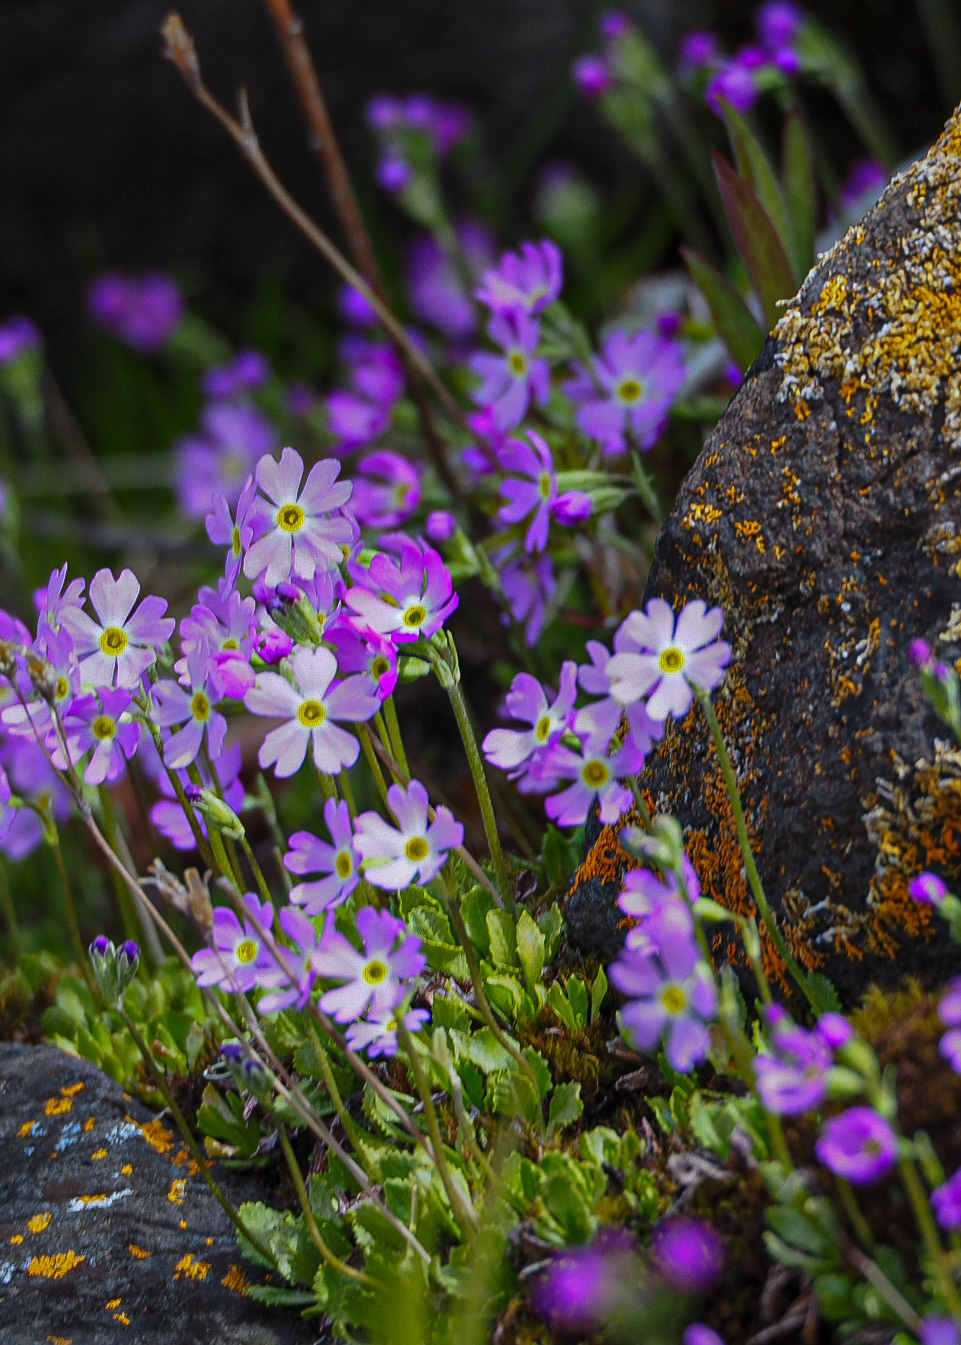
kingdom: Plantae
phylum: Tracheophyta
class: Magnoliopsida
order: Ericales
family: Primulaceae
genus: Primula
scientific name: Primula mistassinica
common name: Bird's-eye primrose
